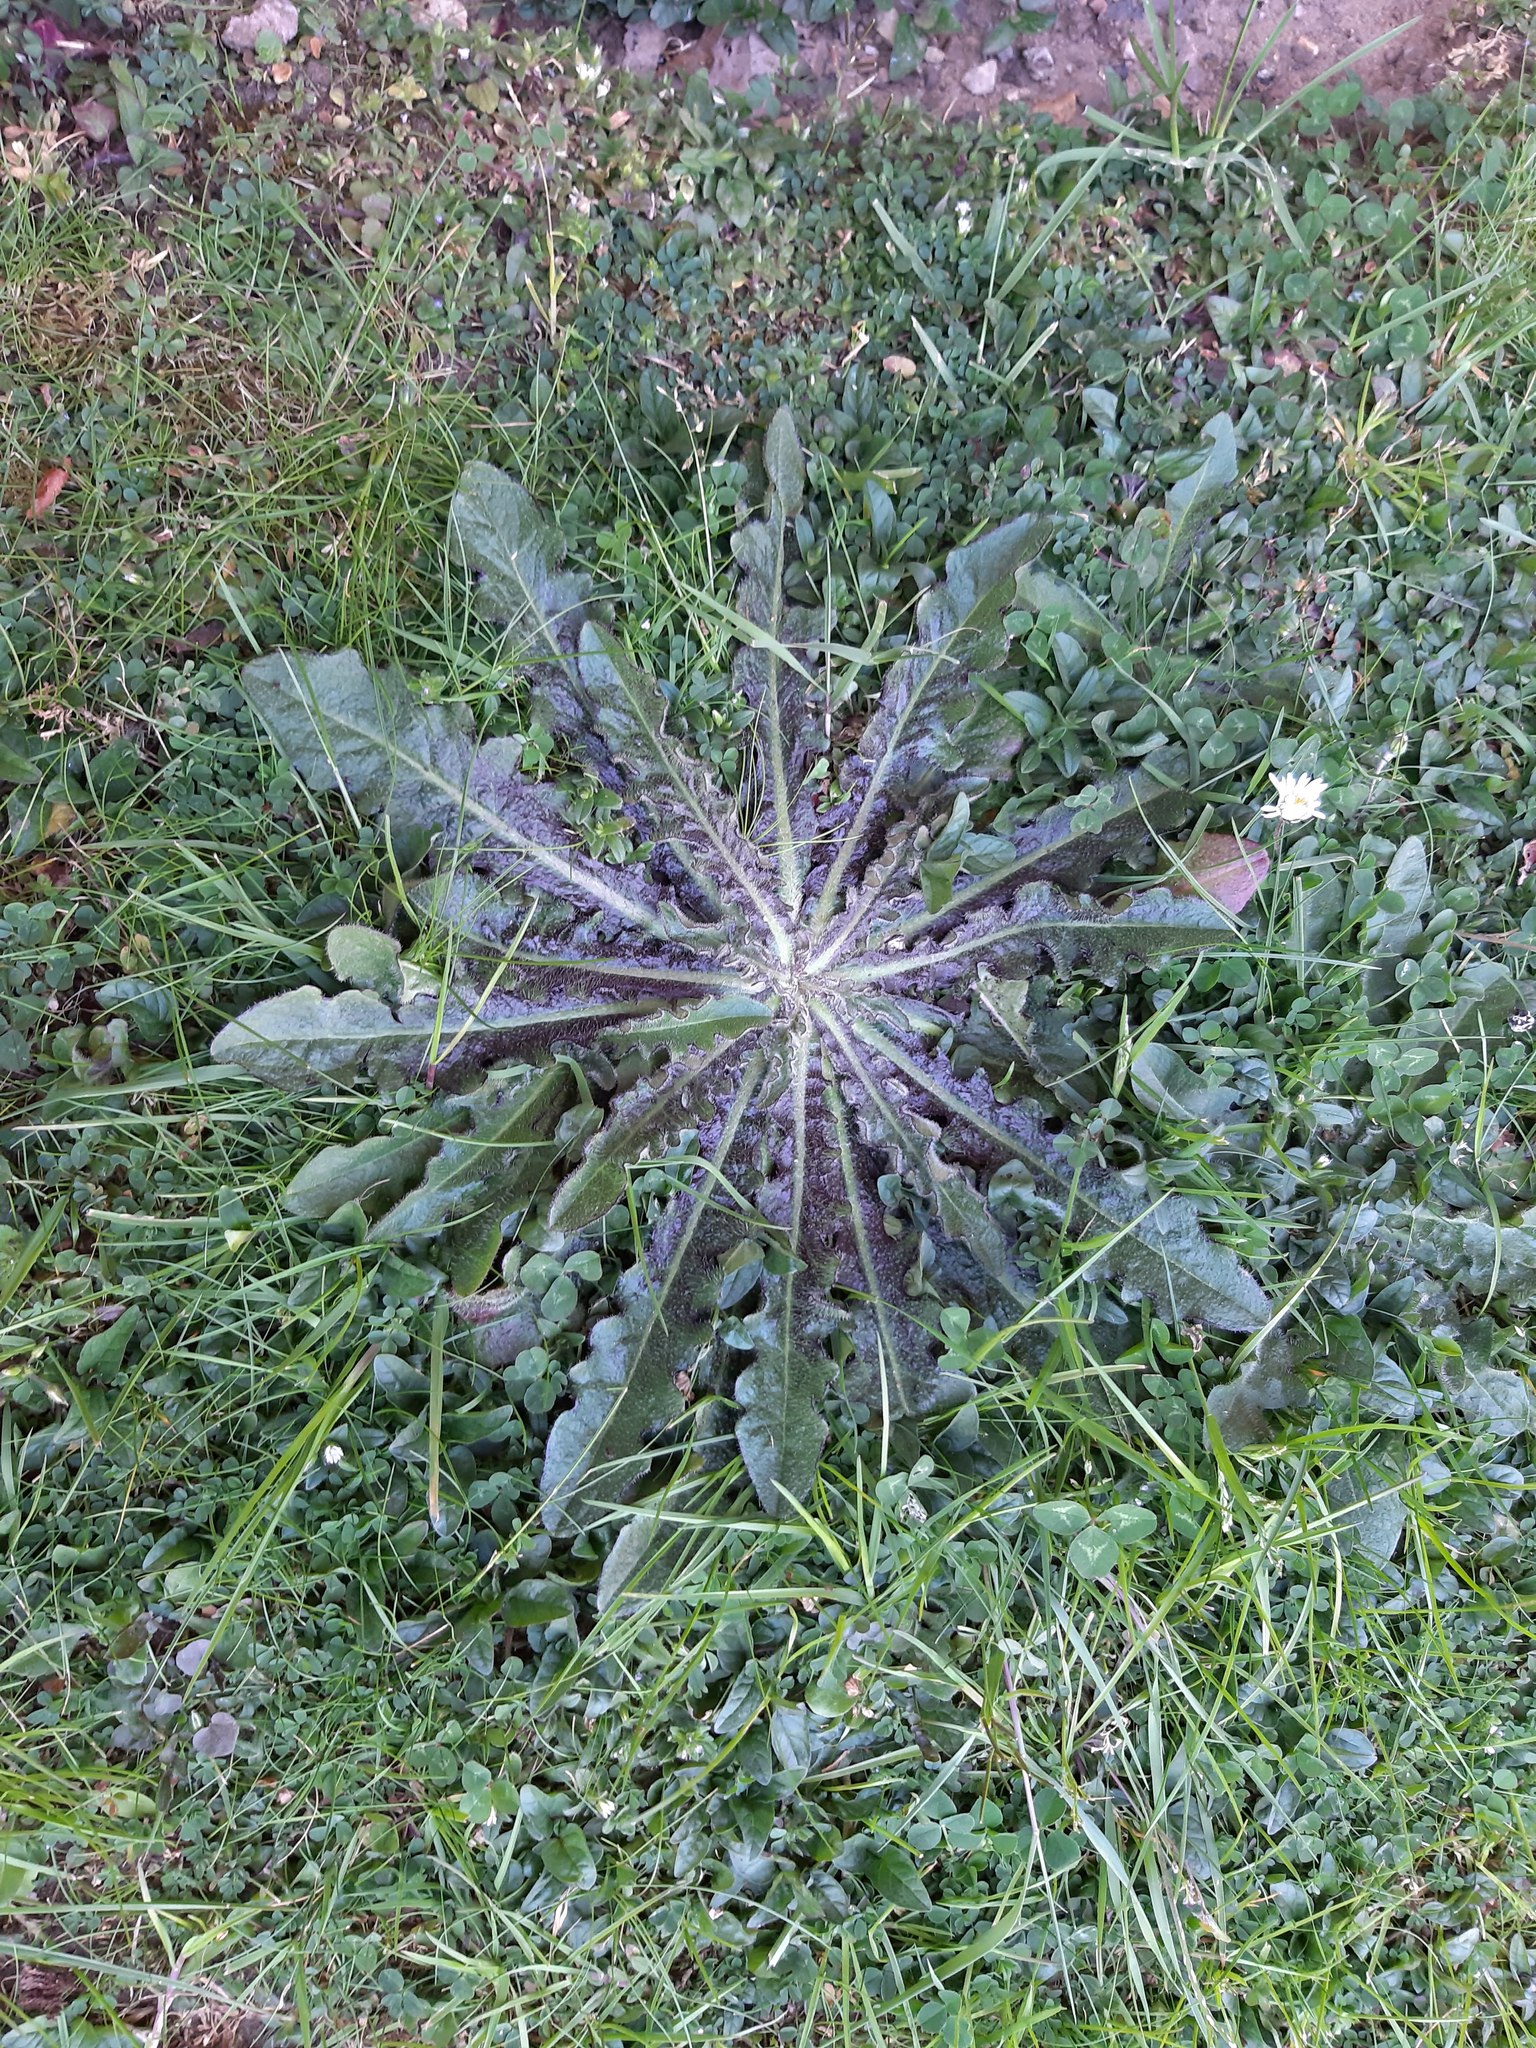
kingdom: Plantae
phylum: Tracheophyta
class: Magnoliopsida
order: Asterales
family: Asteraceae
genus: Hypochaeris
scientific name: Hypochaeris radicata
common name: Flatweed
